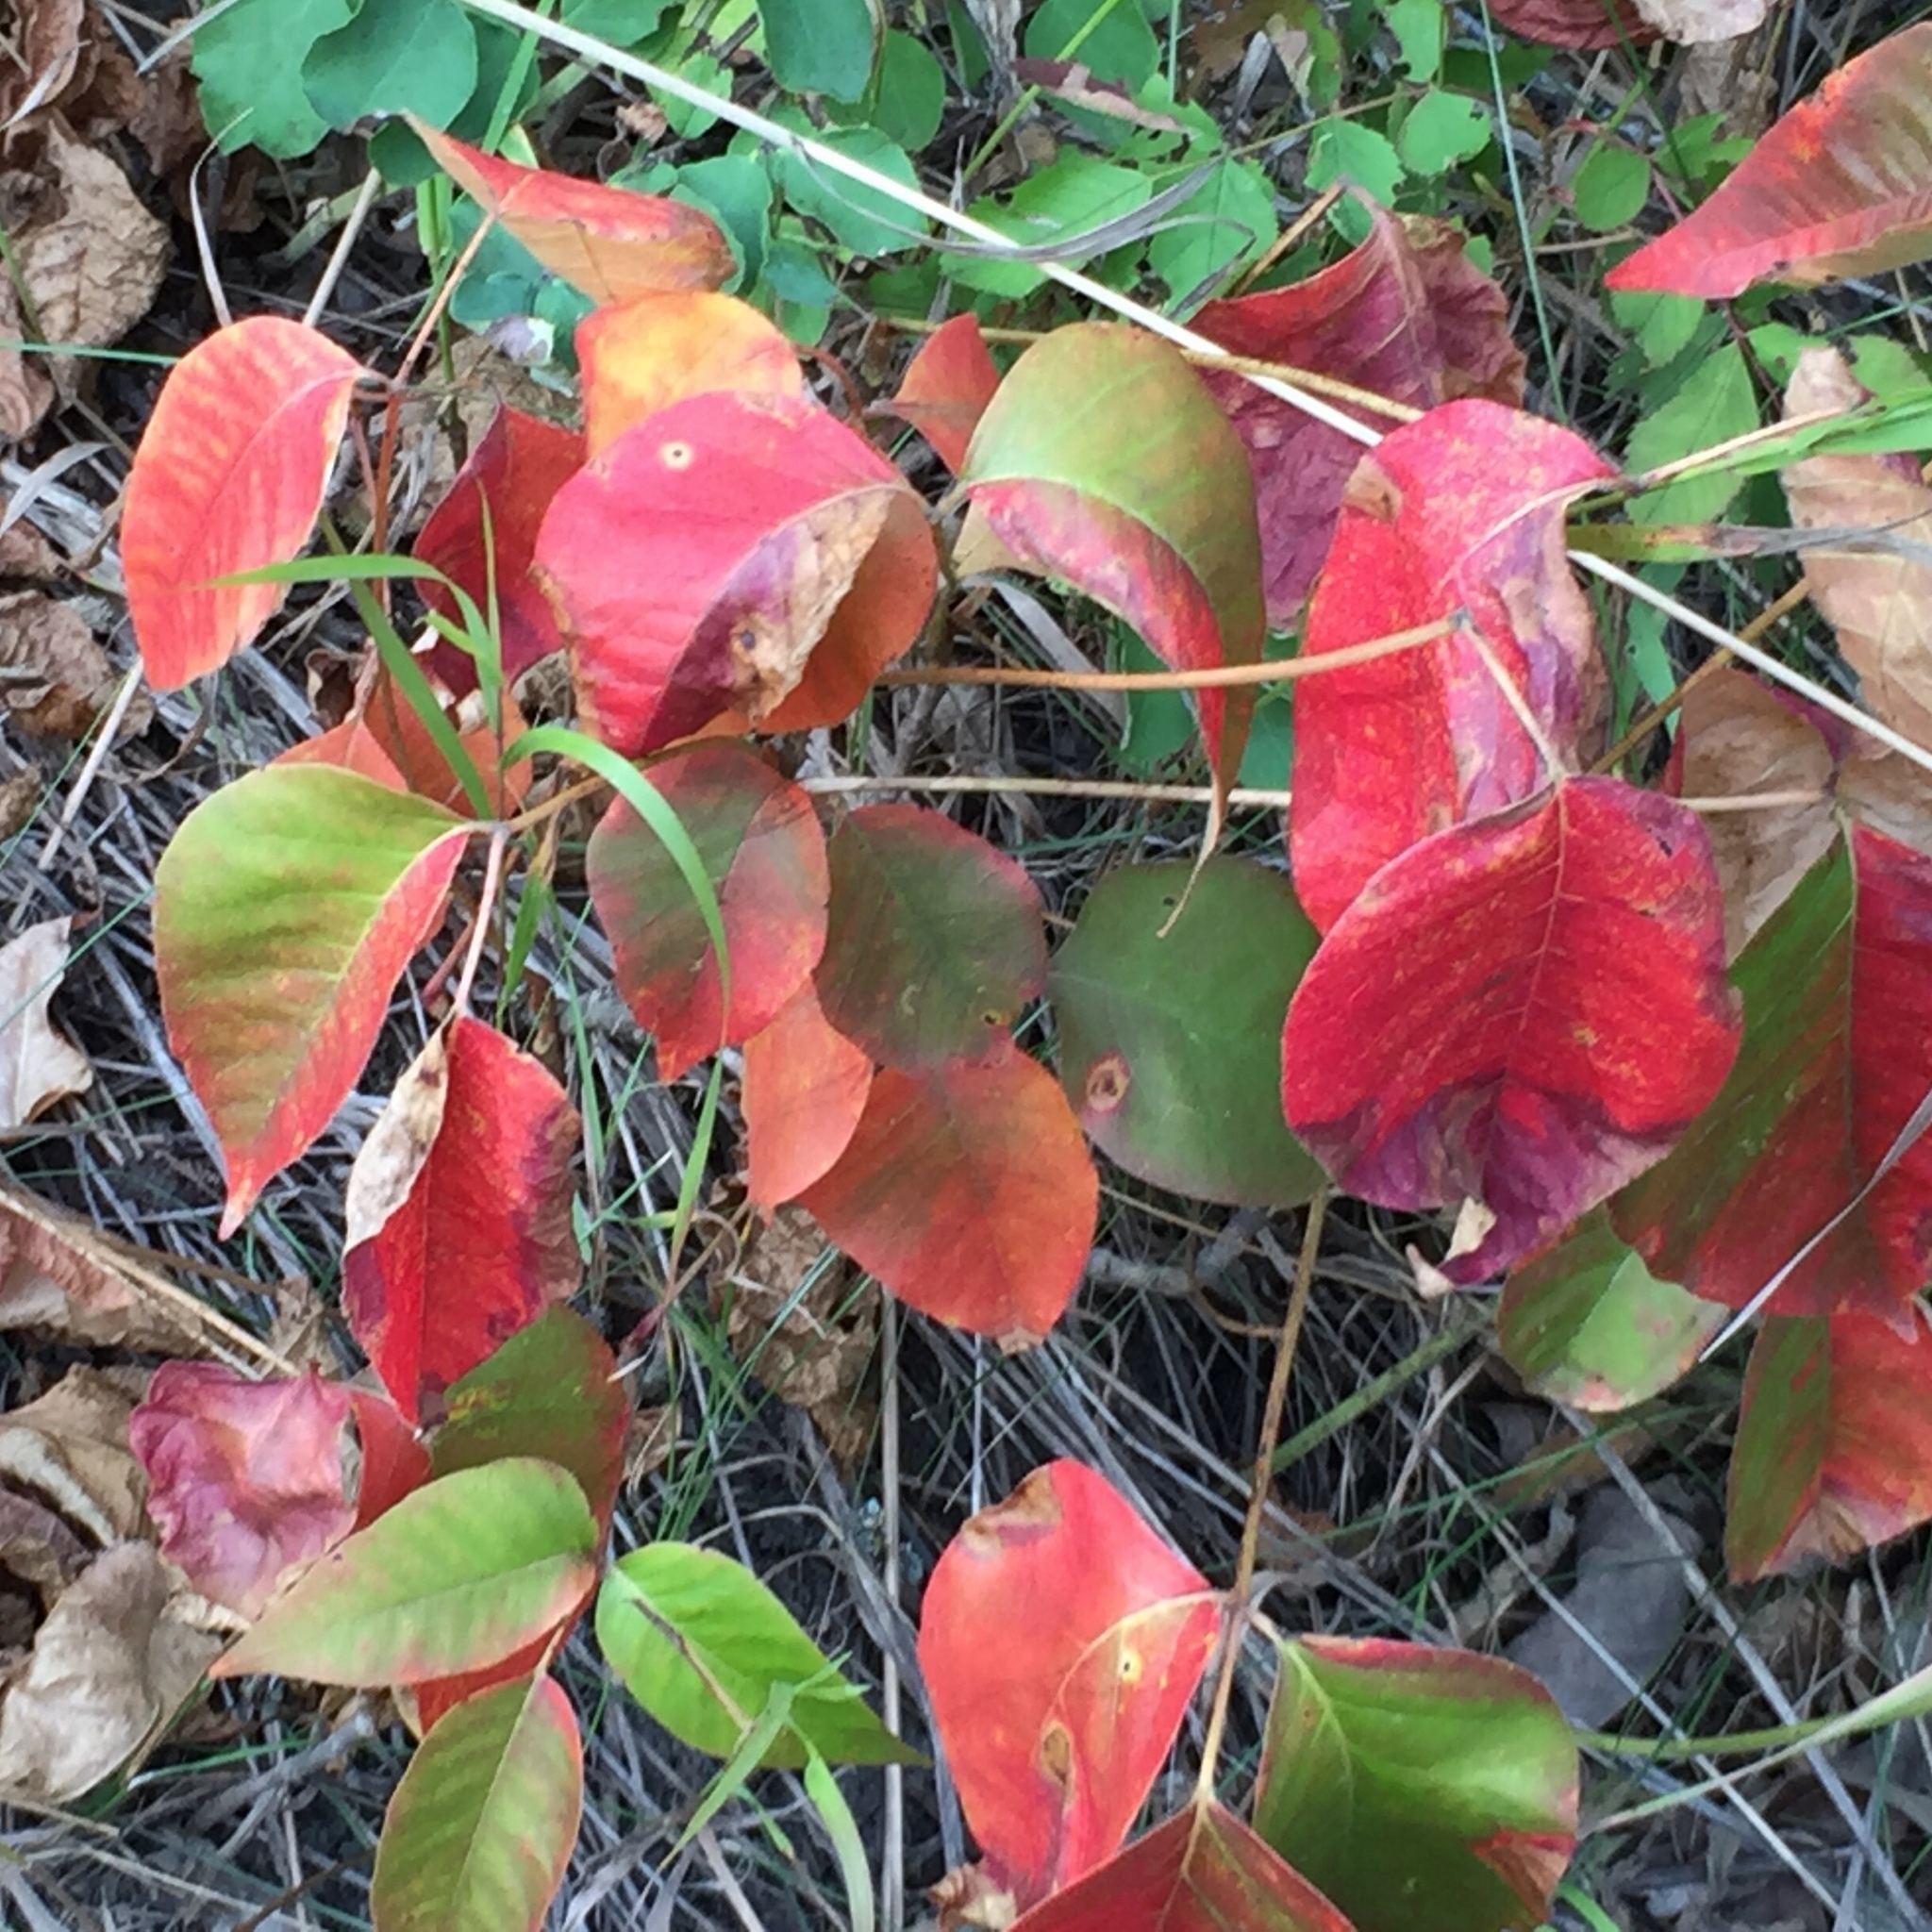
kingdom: Plantae
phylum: Tracheophyta
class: Magnoliopsida
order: Sapindales
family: Anacardiaceae
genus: Toxicodendron
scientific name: Toxicodendron rydbergii
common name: Rydberg's poison-ivy
